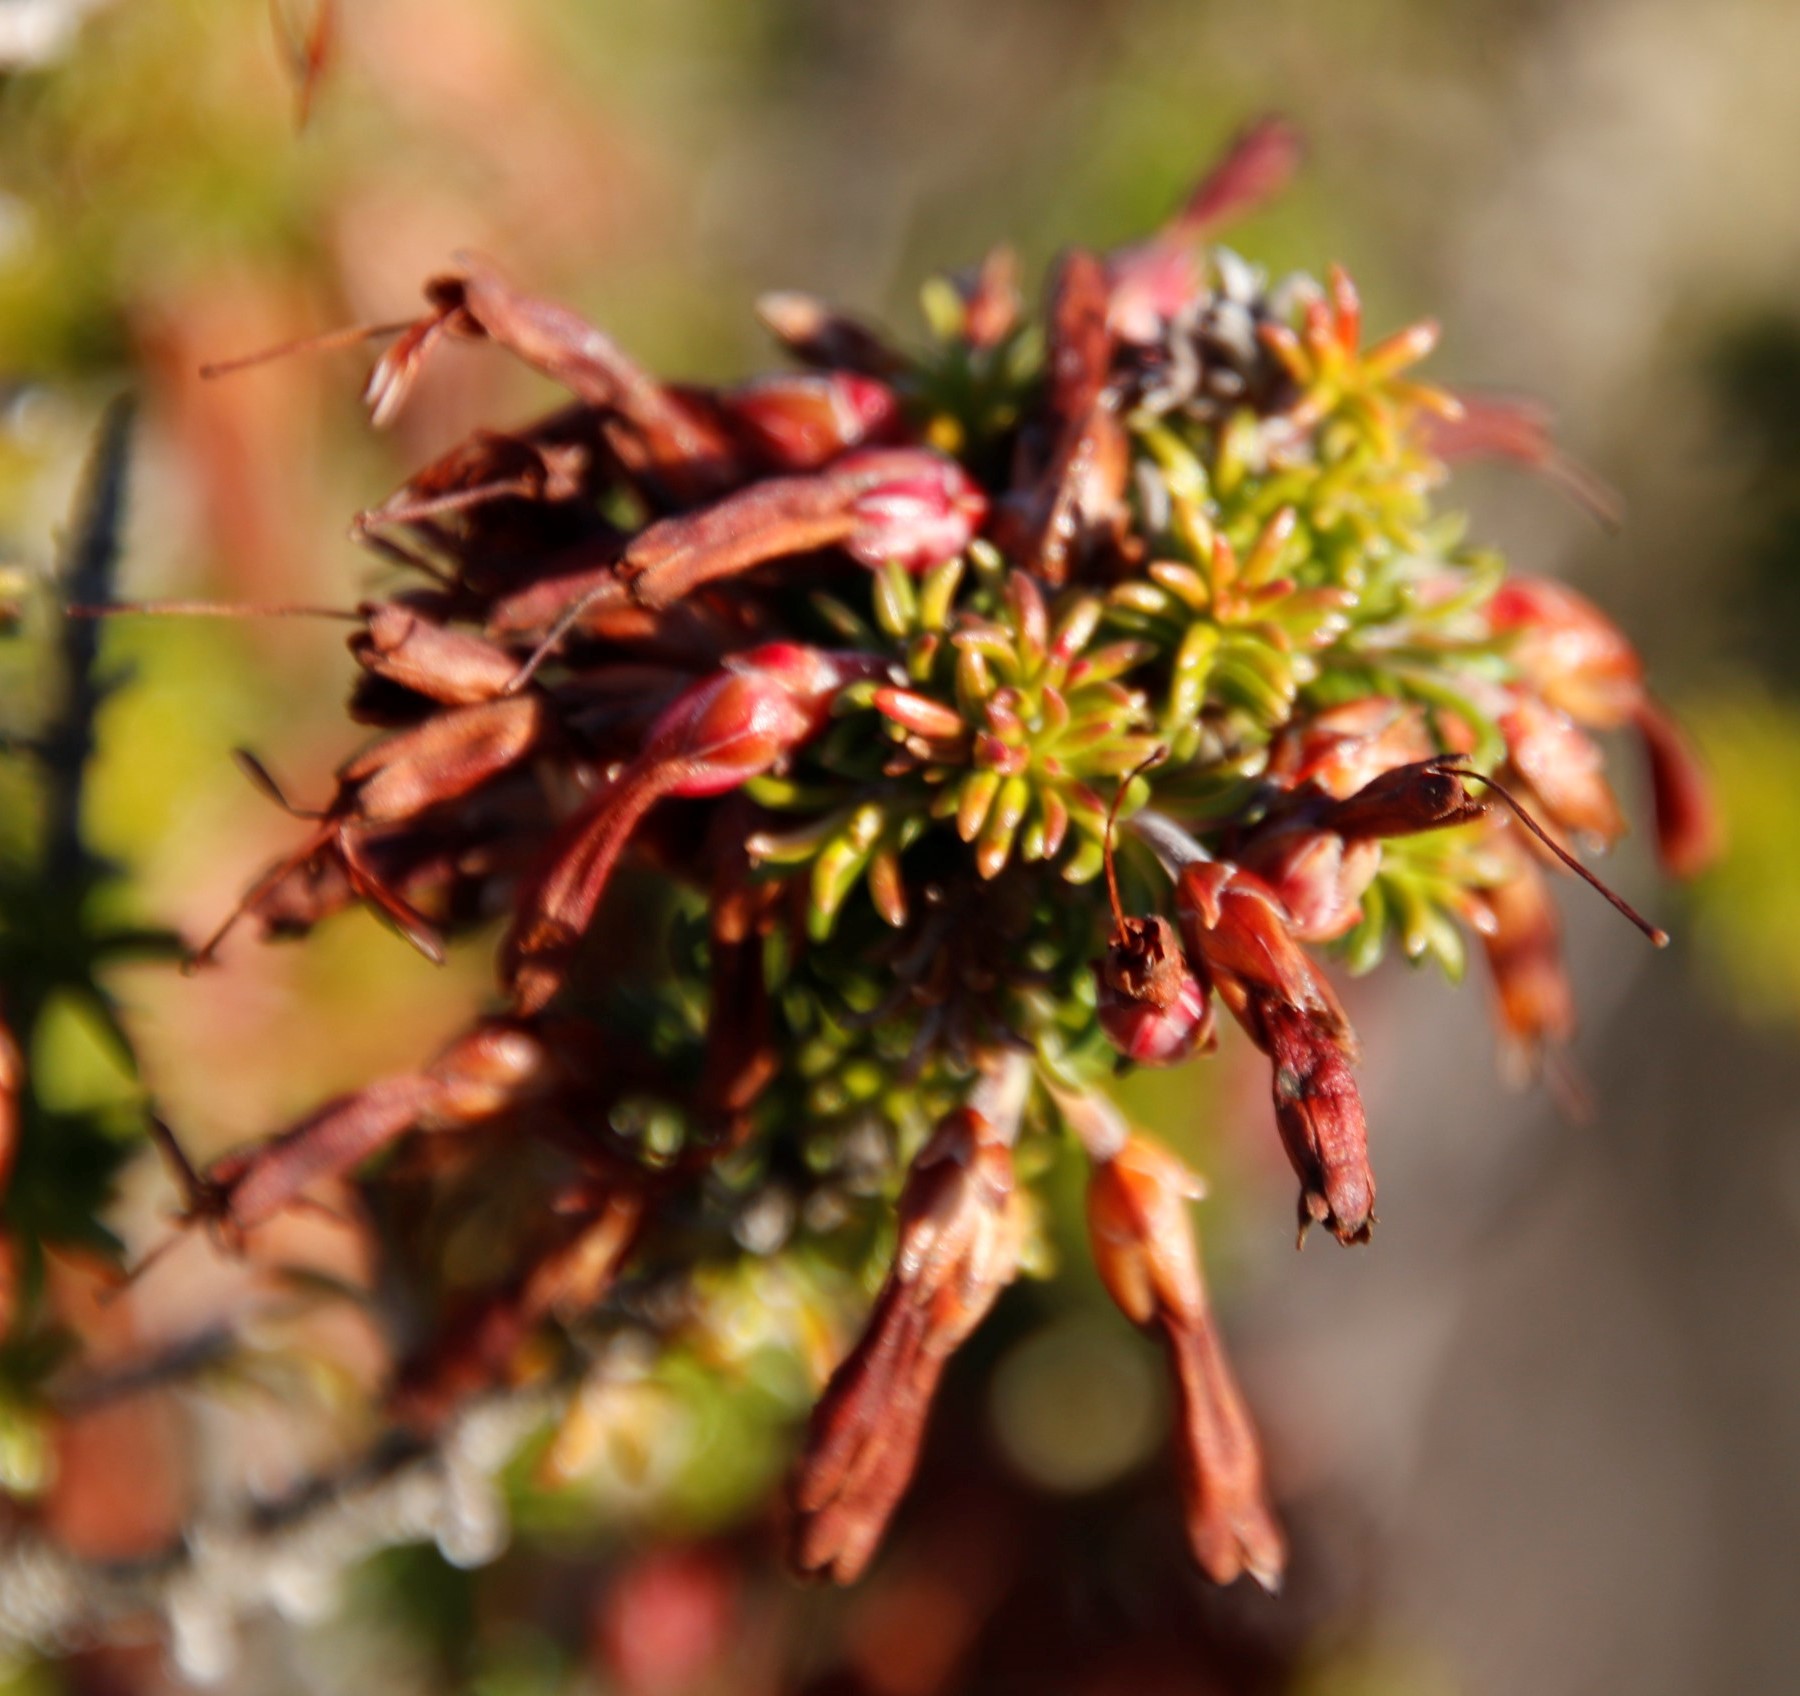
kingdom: Plantae
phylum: Tracheophyta
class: Magnoliopsida
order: Ericales
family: Ericaceae
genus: Erica
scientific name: Erica coccinea
